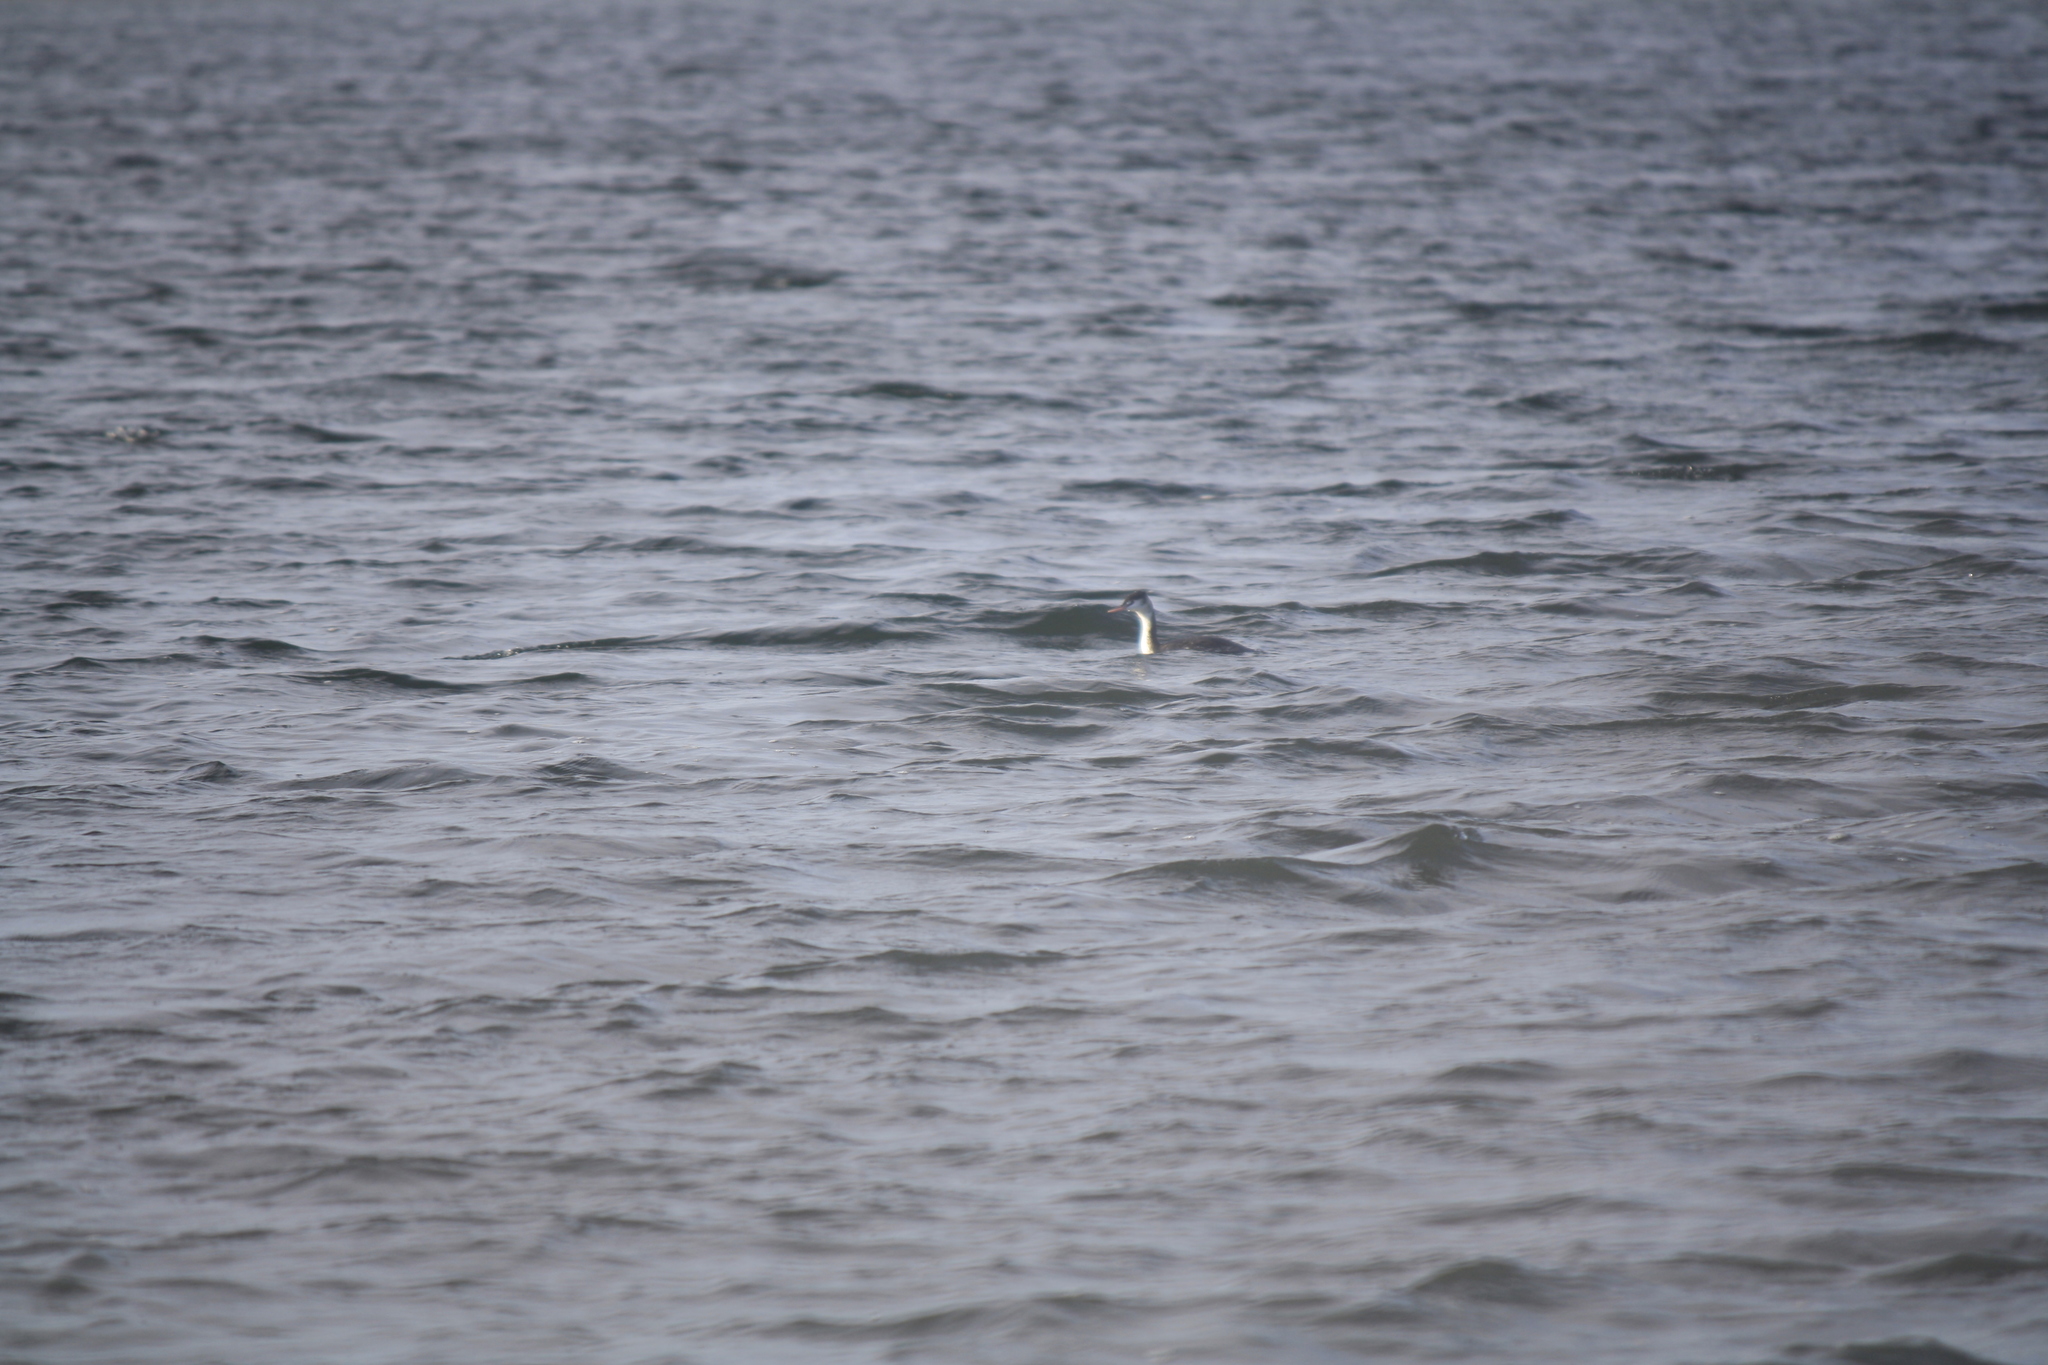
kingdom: Animalia
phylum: Chordata
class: Aves
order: Podicipediformes
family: Podicipedidae
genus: Podiceps
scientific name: Podiceps cristatus
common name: Great crested grebe
